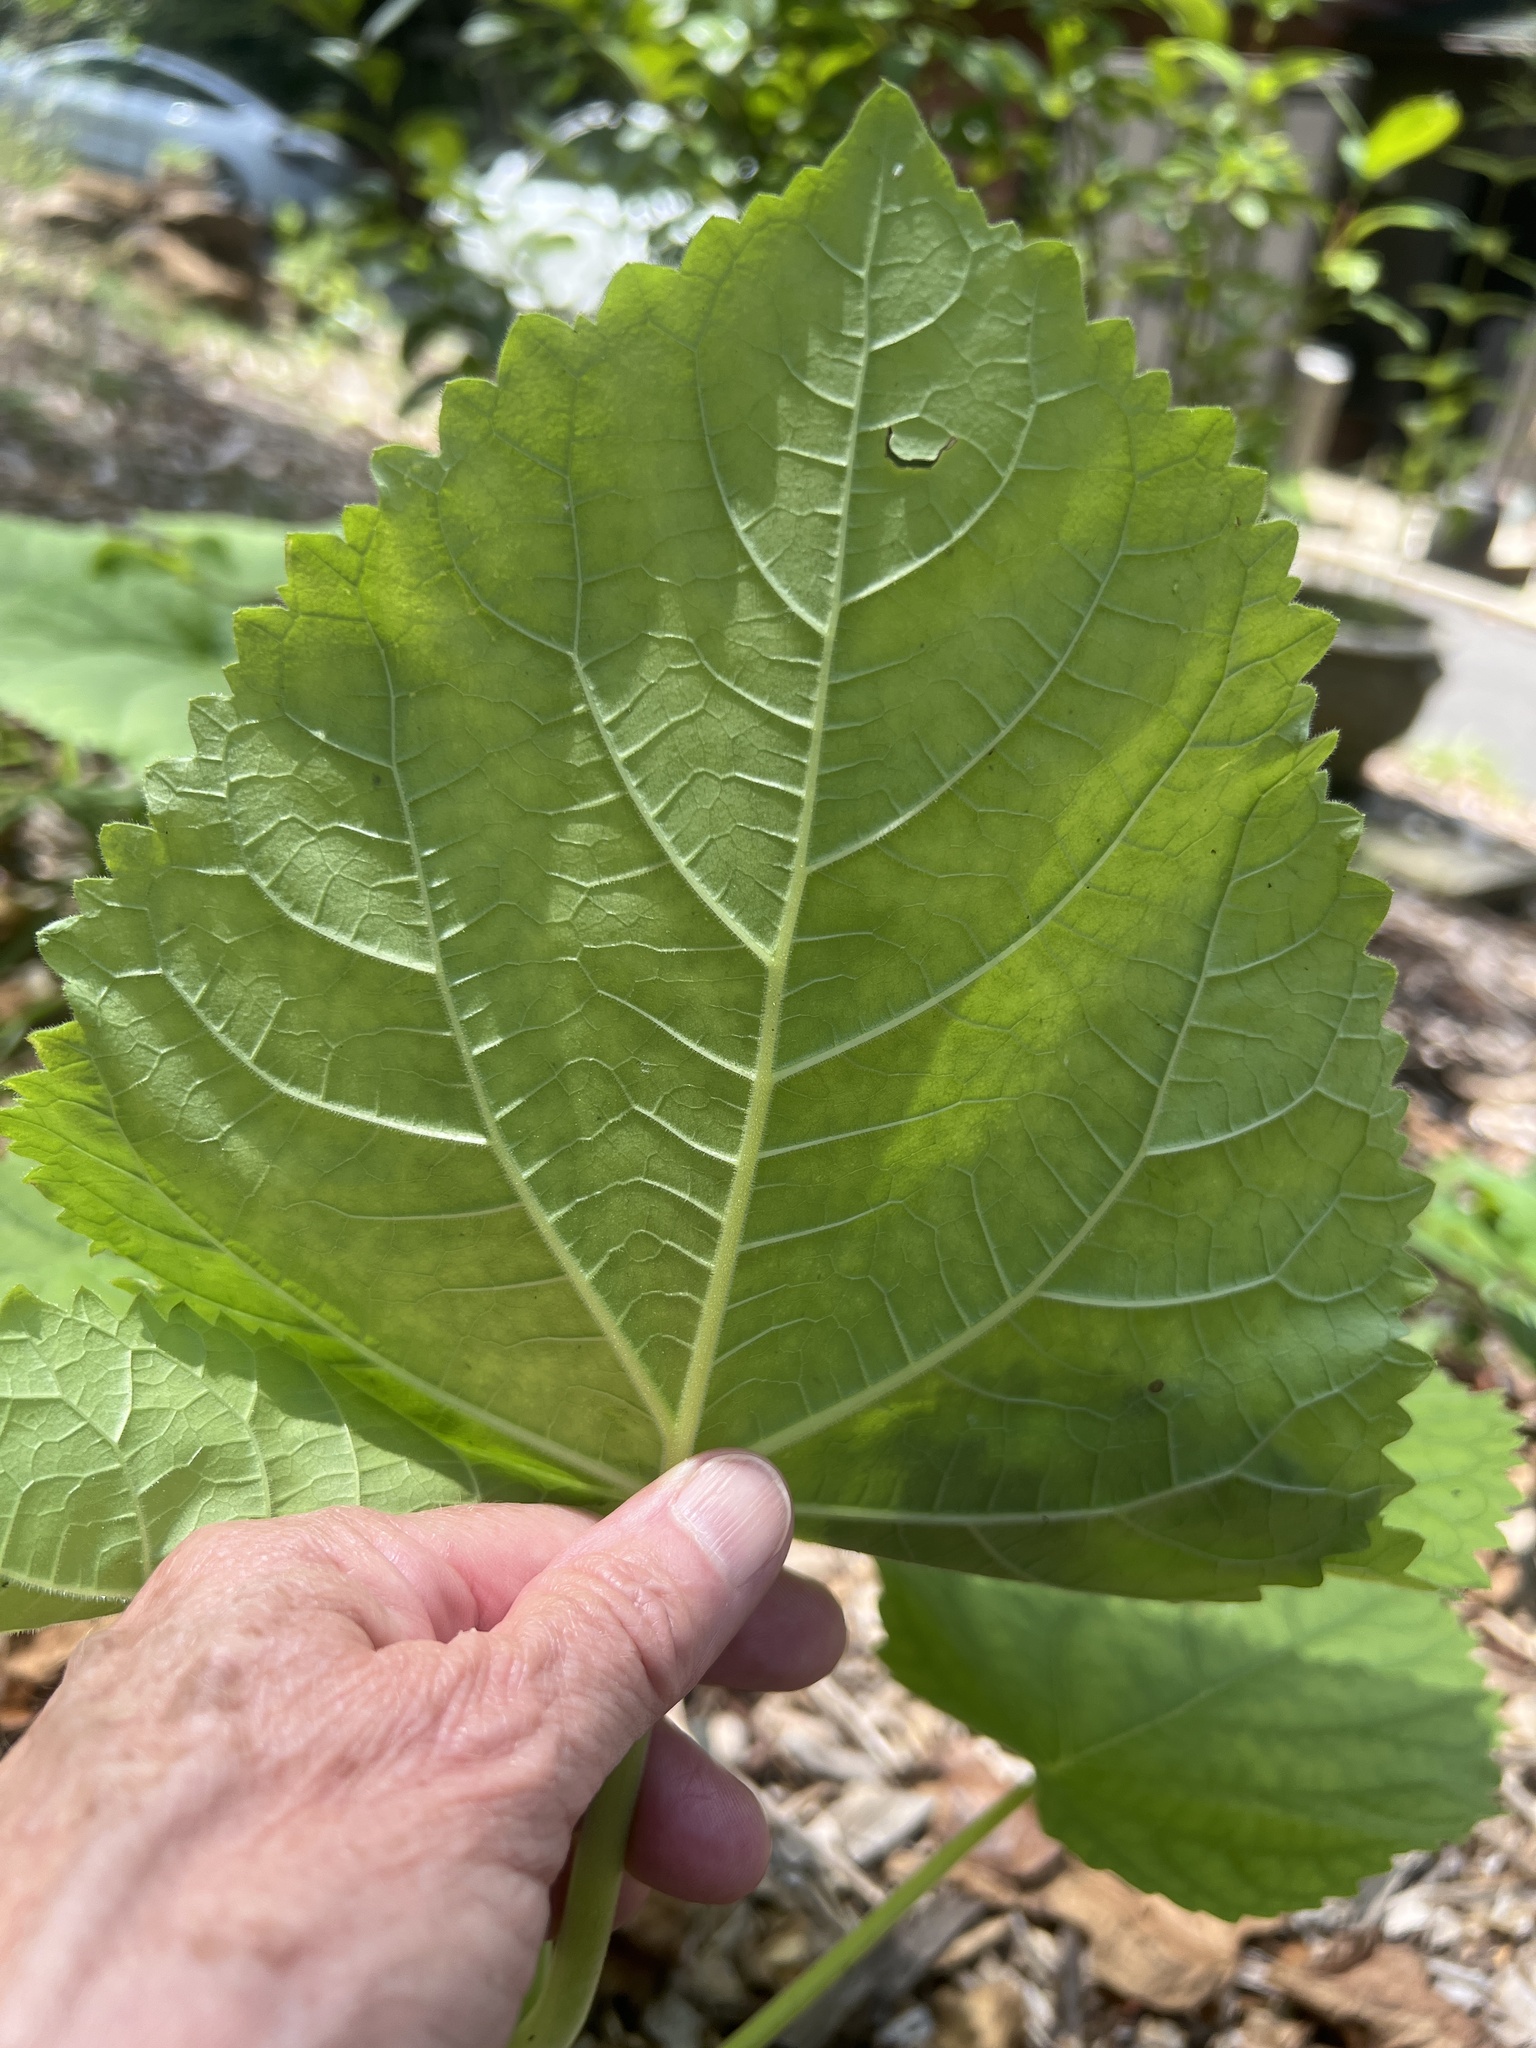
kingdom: Plantae
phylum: Tracheophyta
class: Magnoliopsida
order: Lamiales
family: Paulowniaceae
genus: Paulownia
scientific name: Paulownia tomentosa
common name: Foxglove-tree
